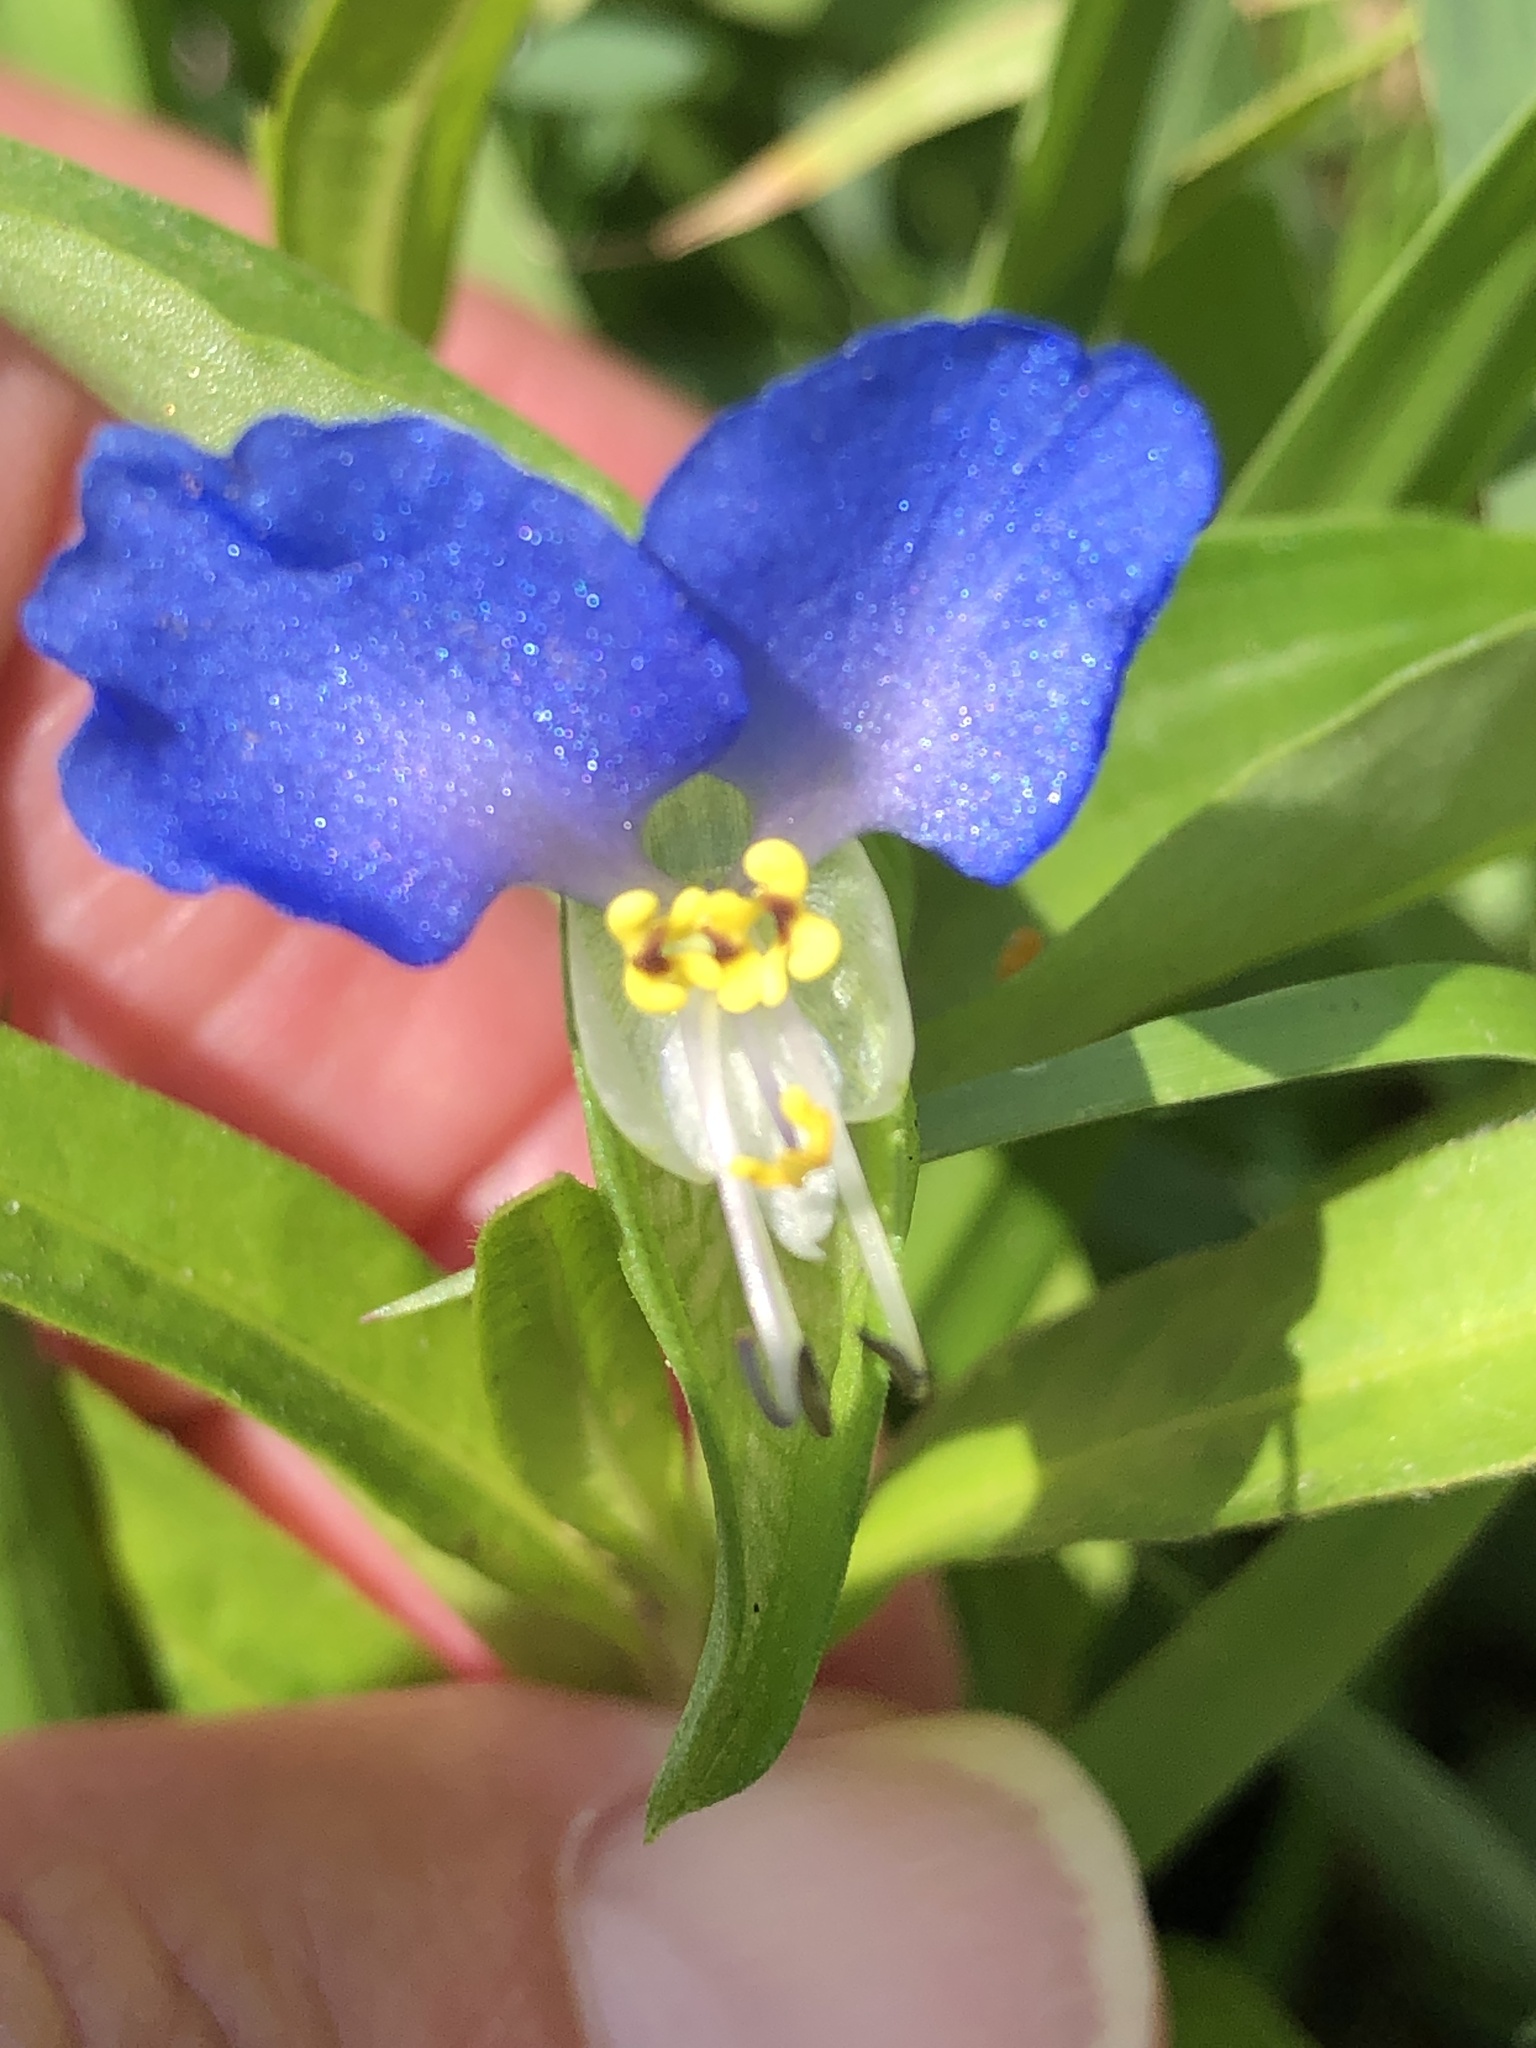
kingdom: Plantae
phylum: Tracheophyta
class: Liliopsida
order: Commelinales
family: Commelinaceae
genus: Commelina
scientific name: Commelina communis
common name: Asiatic dayflower
